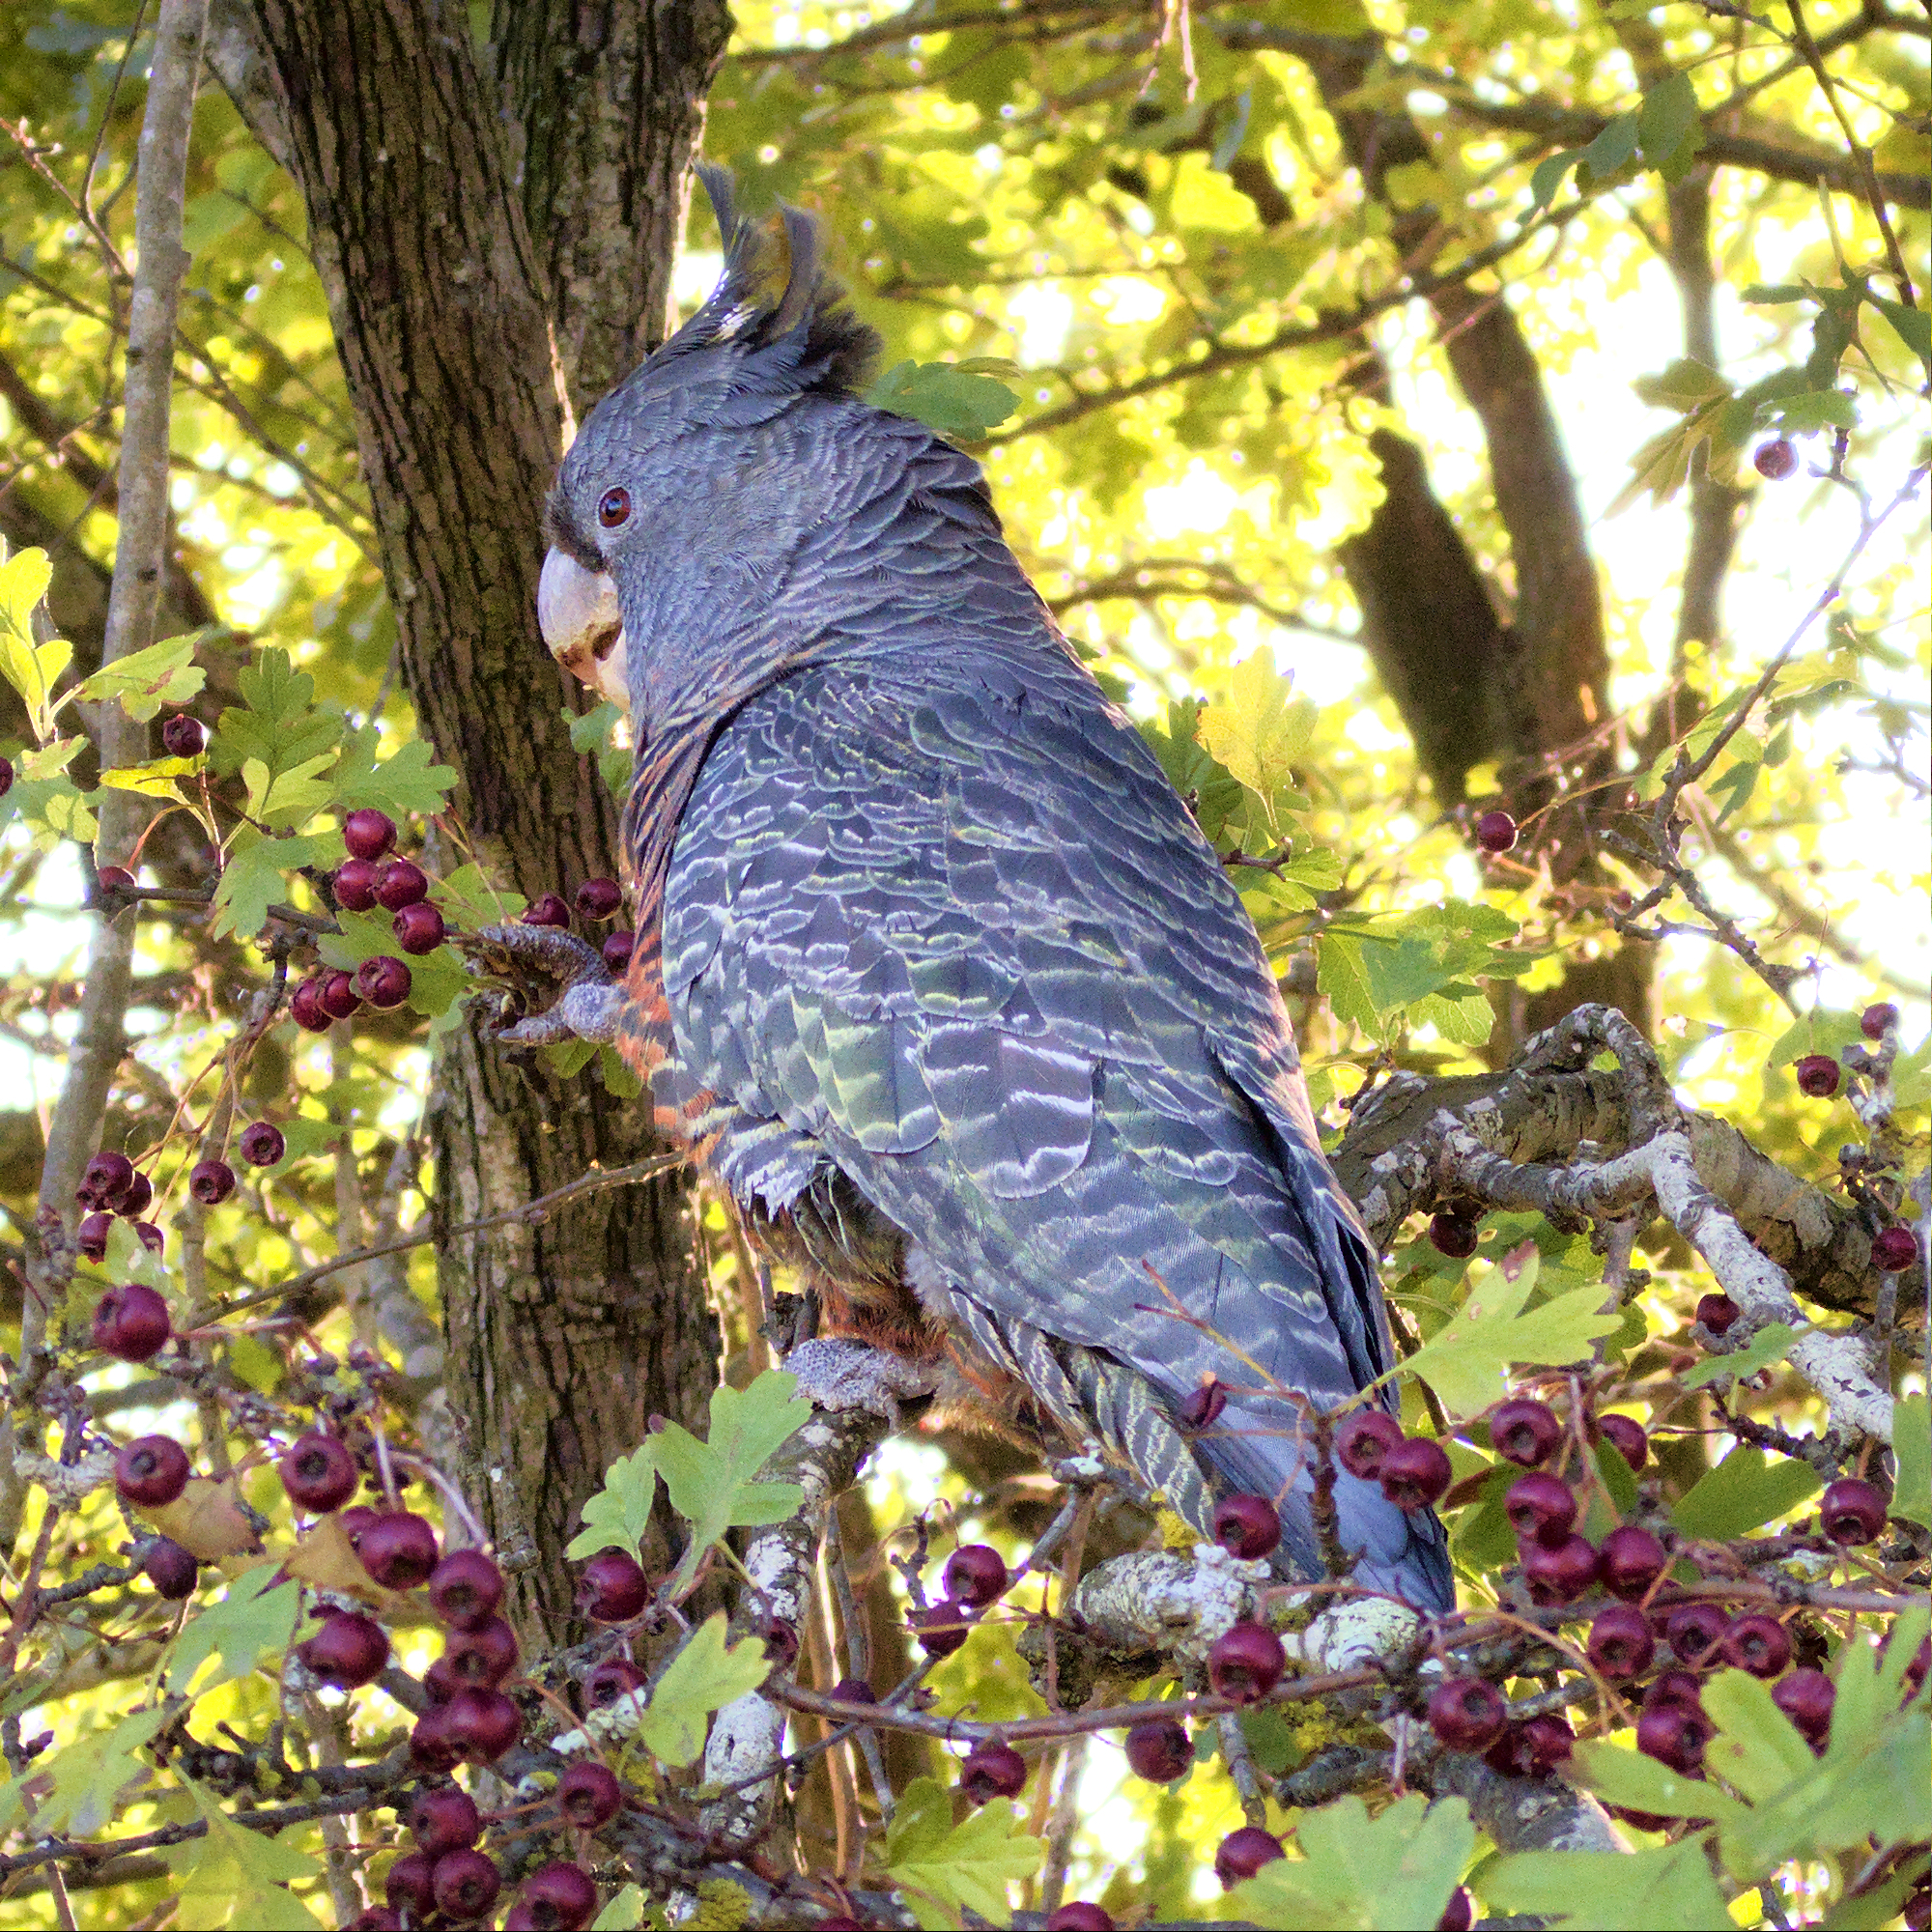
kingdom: Animalia
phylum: Chordata
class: Aves
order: Psittaciformes
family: Psittacidae
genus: Callocephalon
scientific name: Callocephalon fimbriatum
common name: Gang-gang cockatoo
